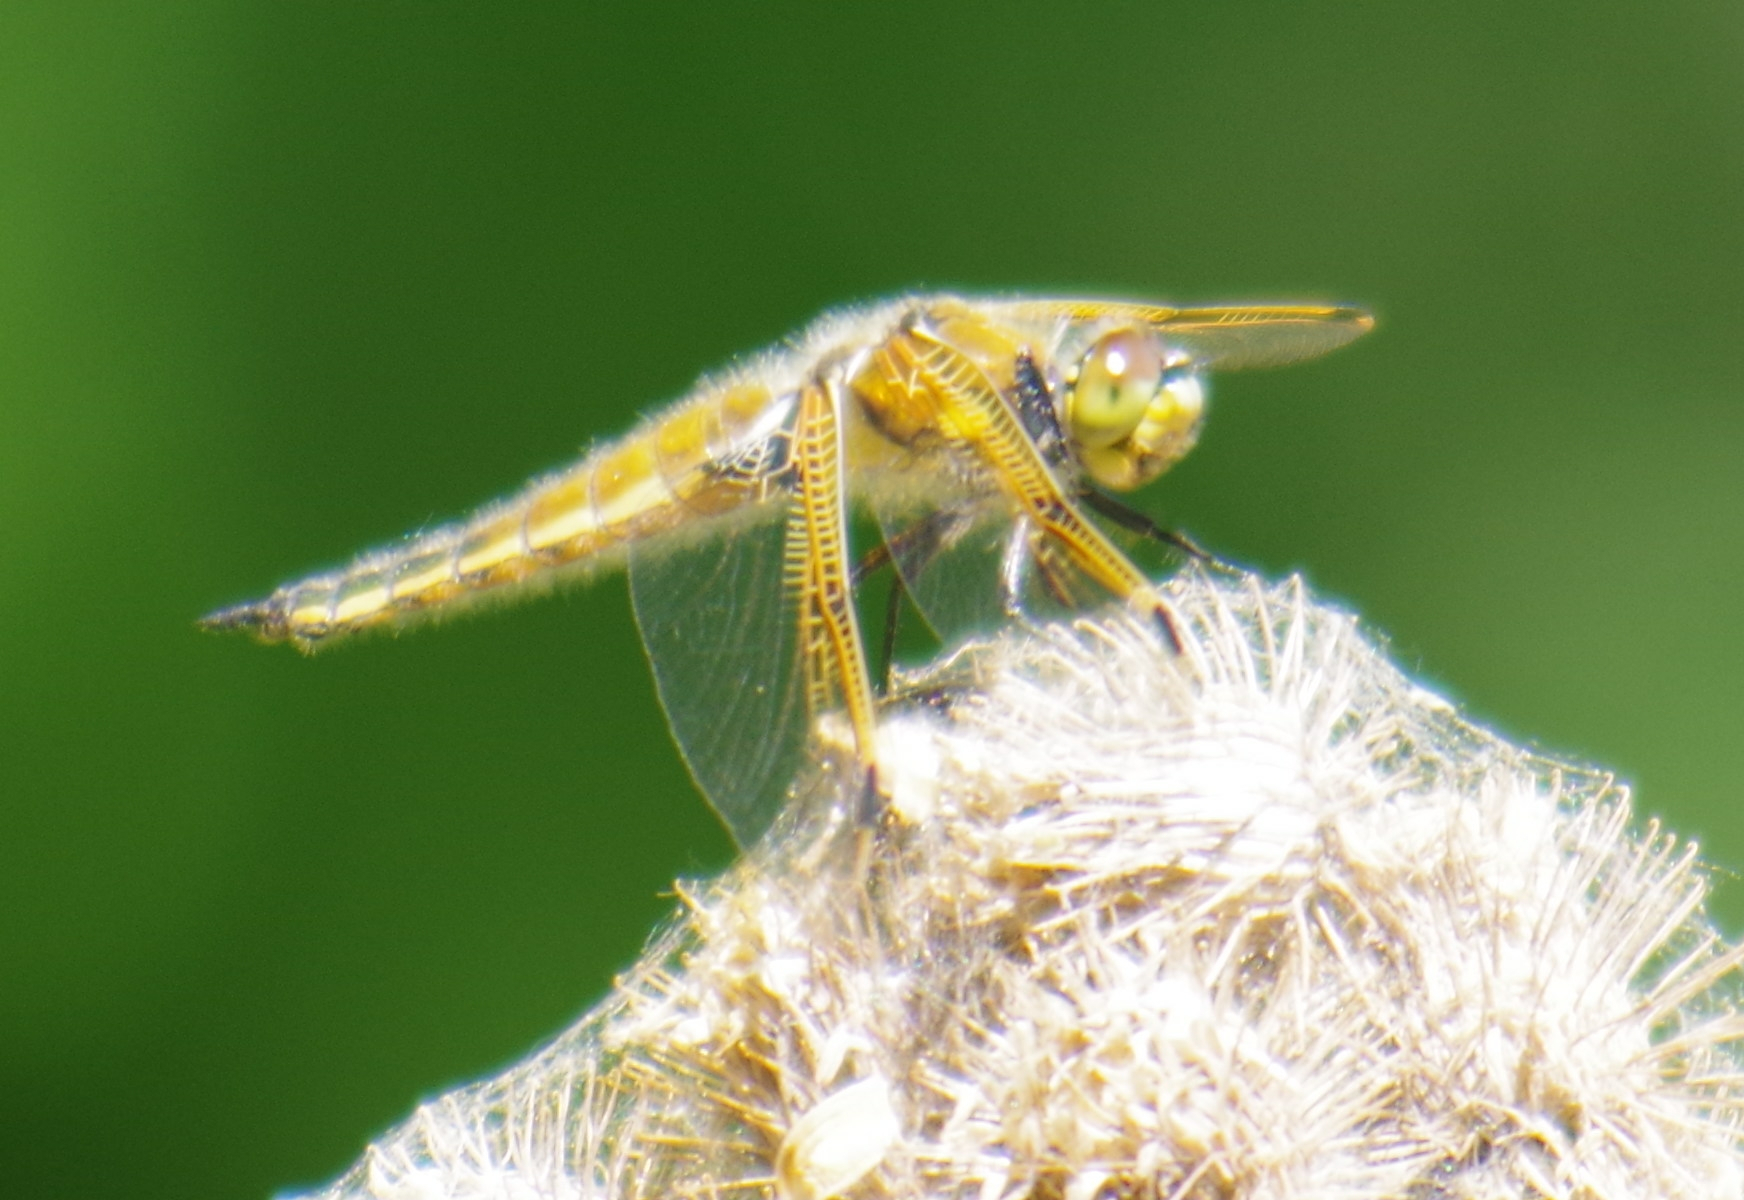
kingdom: Animalia
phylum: Arthropoda
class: Insecta
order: Odonata
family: Libellulidae
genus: Libellula
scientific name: Libellula quadrimaculata
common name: Four-spotted chaser
